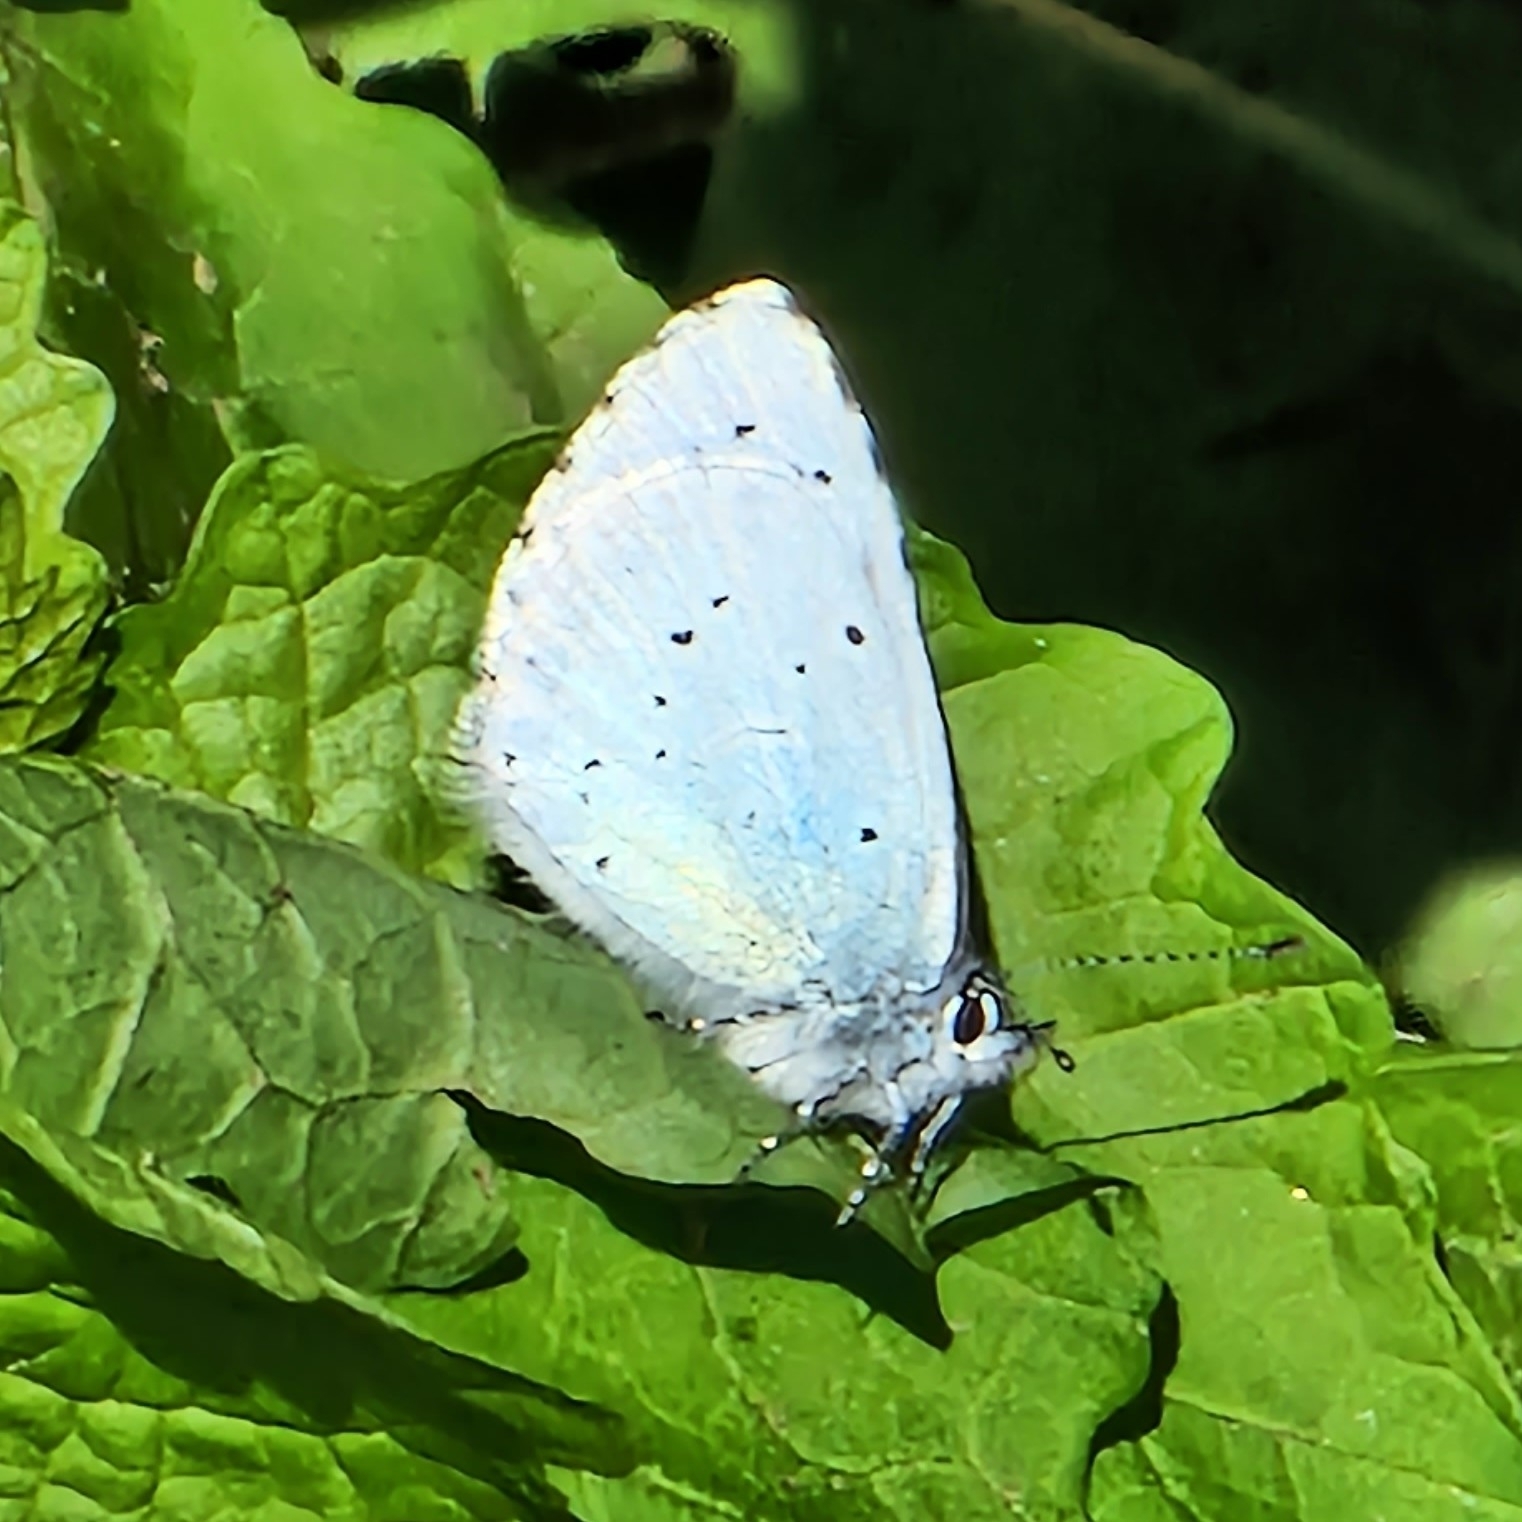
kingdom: Animalia
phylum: Arthropoda
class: Insecta
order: Lepidoptera
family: Lycaenidae
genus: Celastrina
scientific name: Celastrina argiolus
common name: Holly blue
